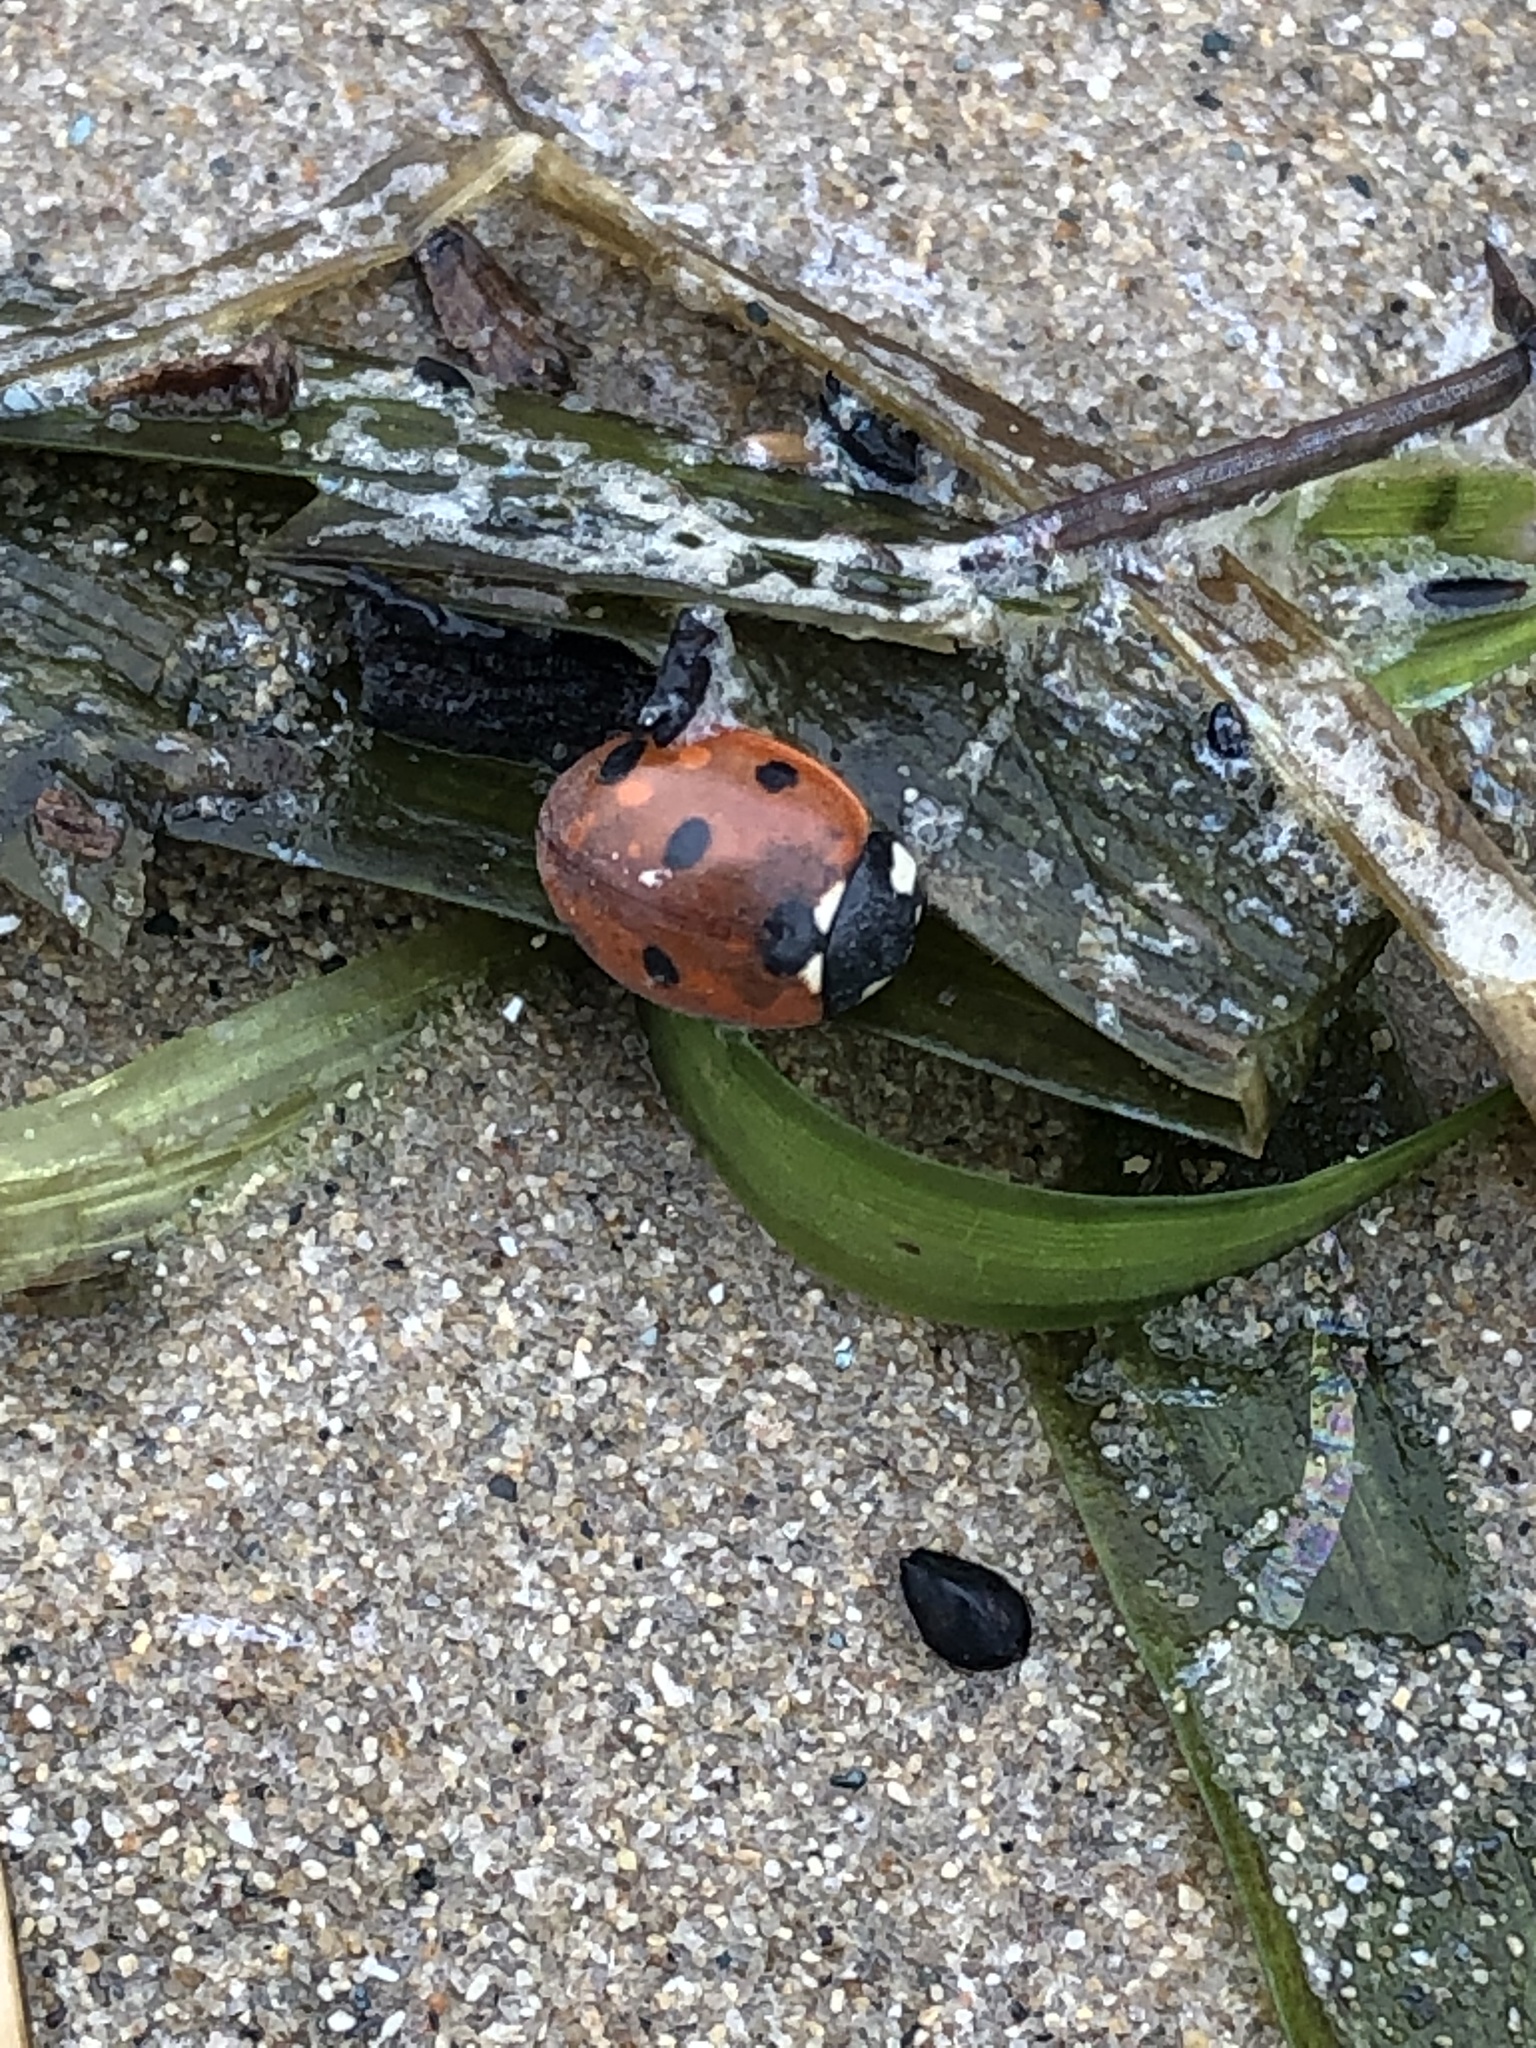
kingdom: Animalia
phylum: Arthropoda
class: Insecta
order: Coleoptera
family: Coccinellidae
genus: Coccinella
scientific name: Coccinella septempunctata
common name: Sevenspotted lady beetle
